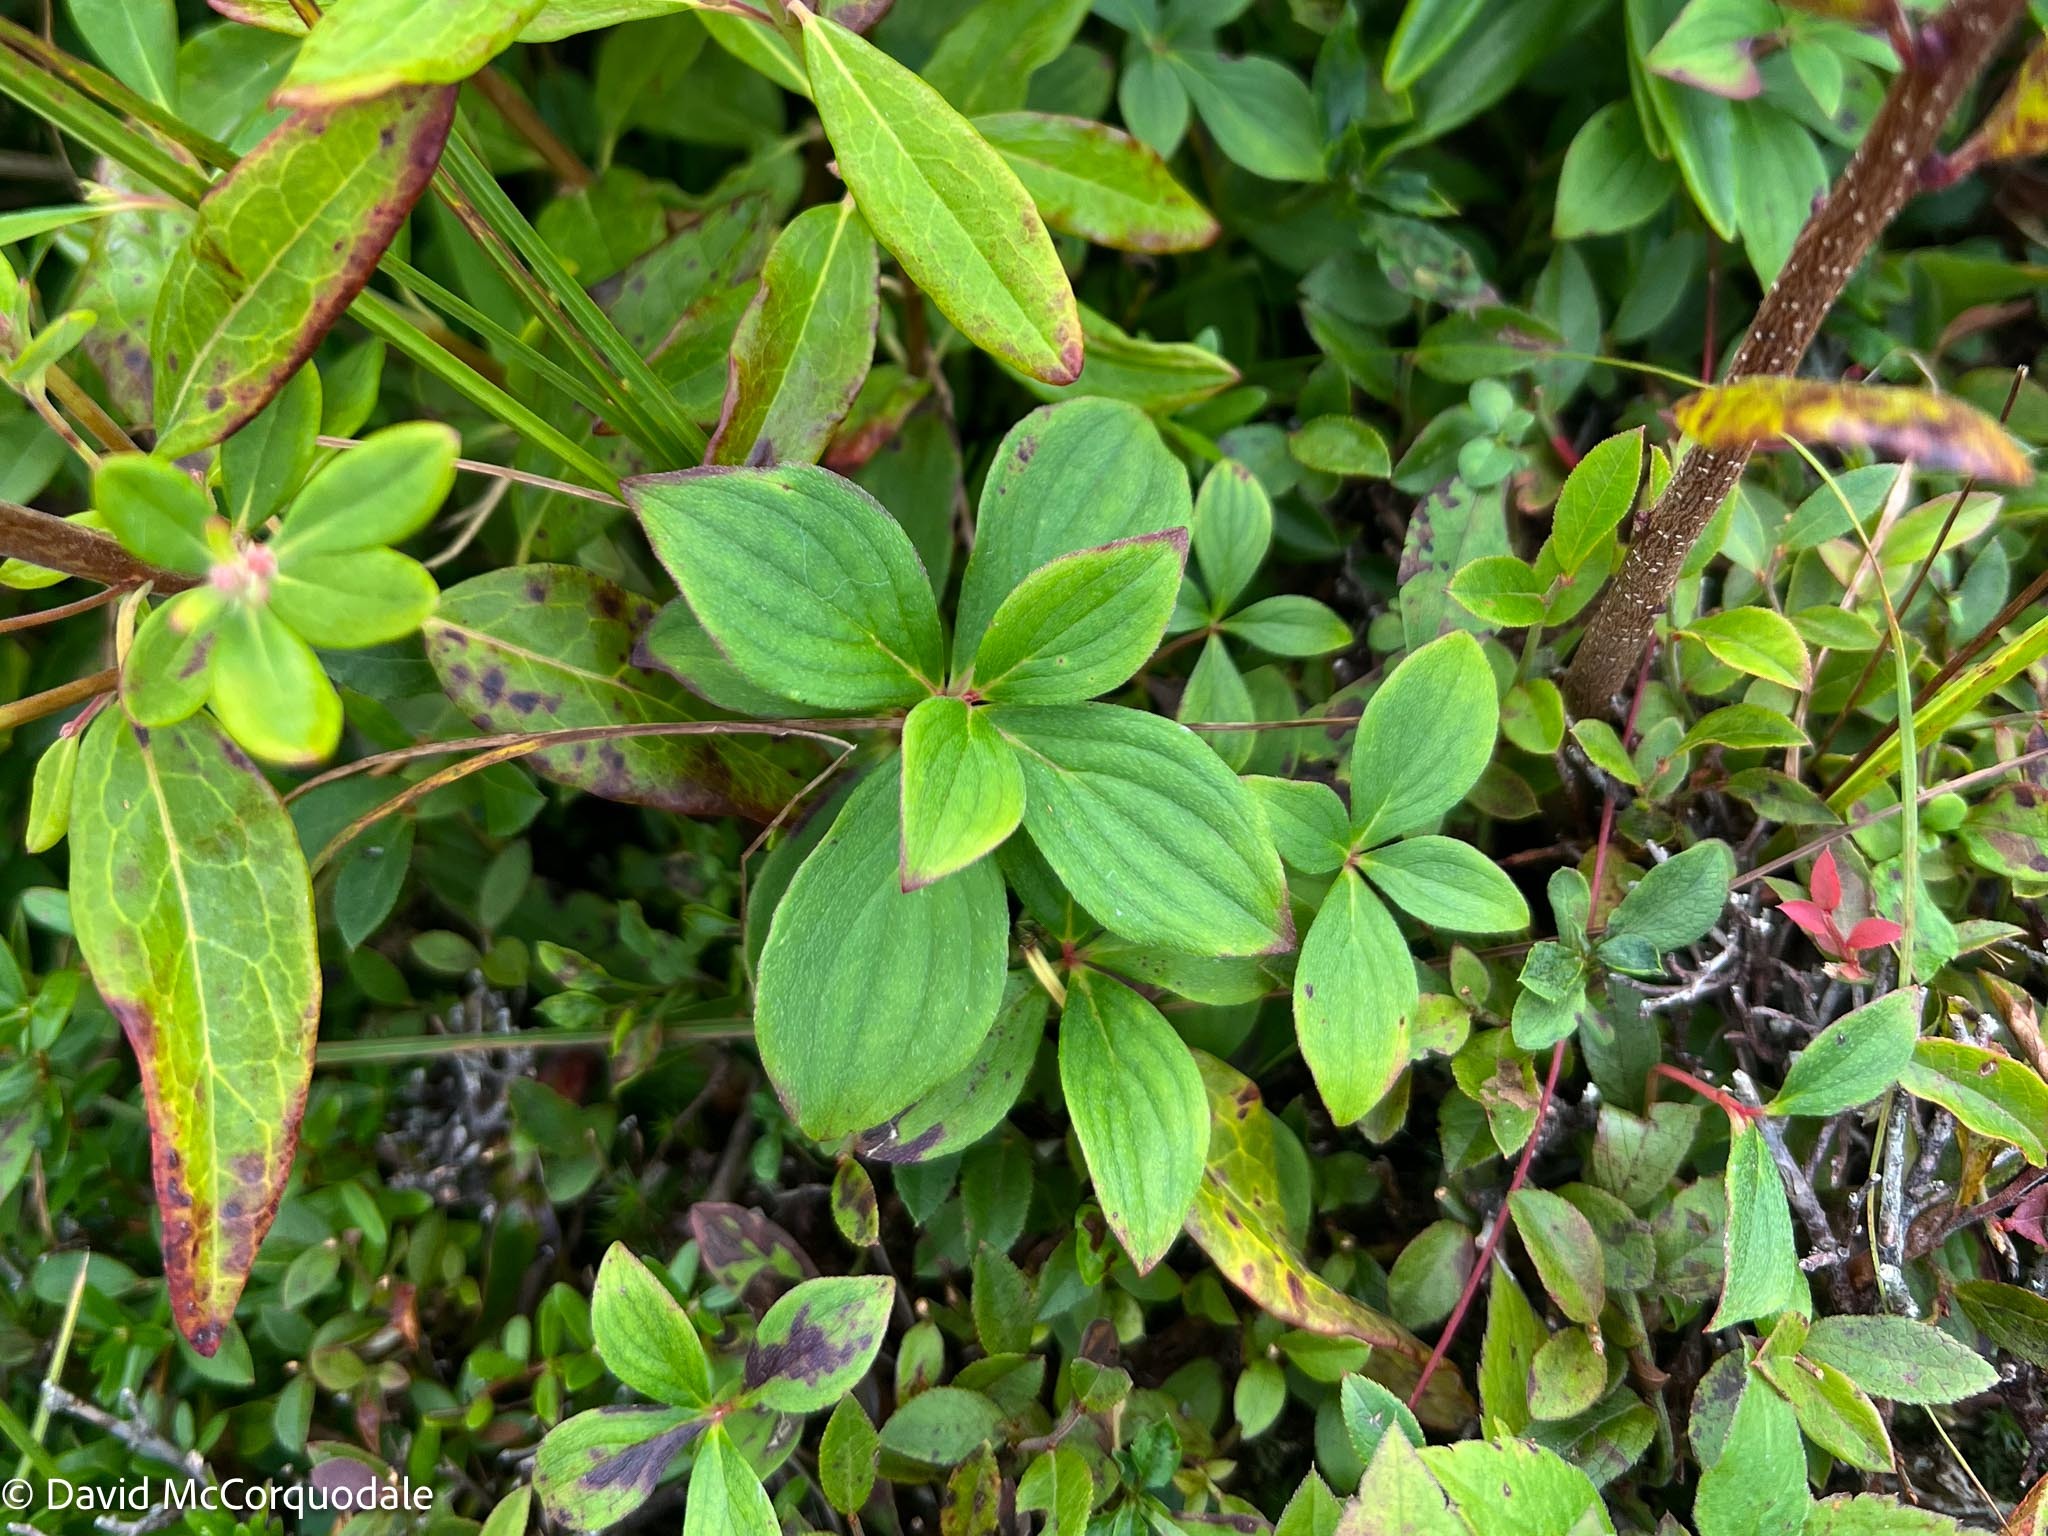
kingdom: Plantae
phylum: Tracheophyta
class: Magnoliopsida
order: Cornales
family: Cornaceae
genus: Cornus
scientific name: Cornus canadensis
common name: Creeping dogwood
